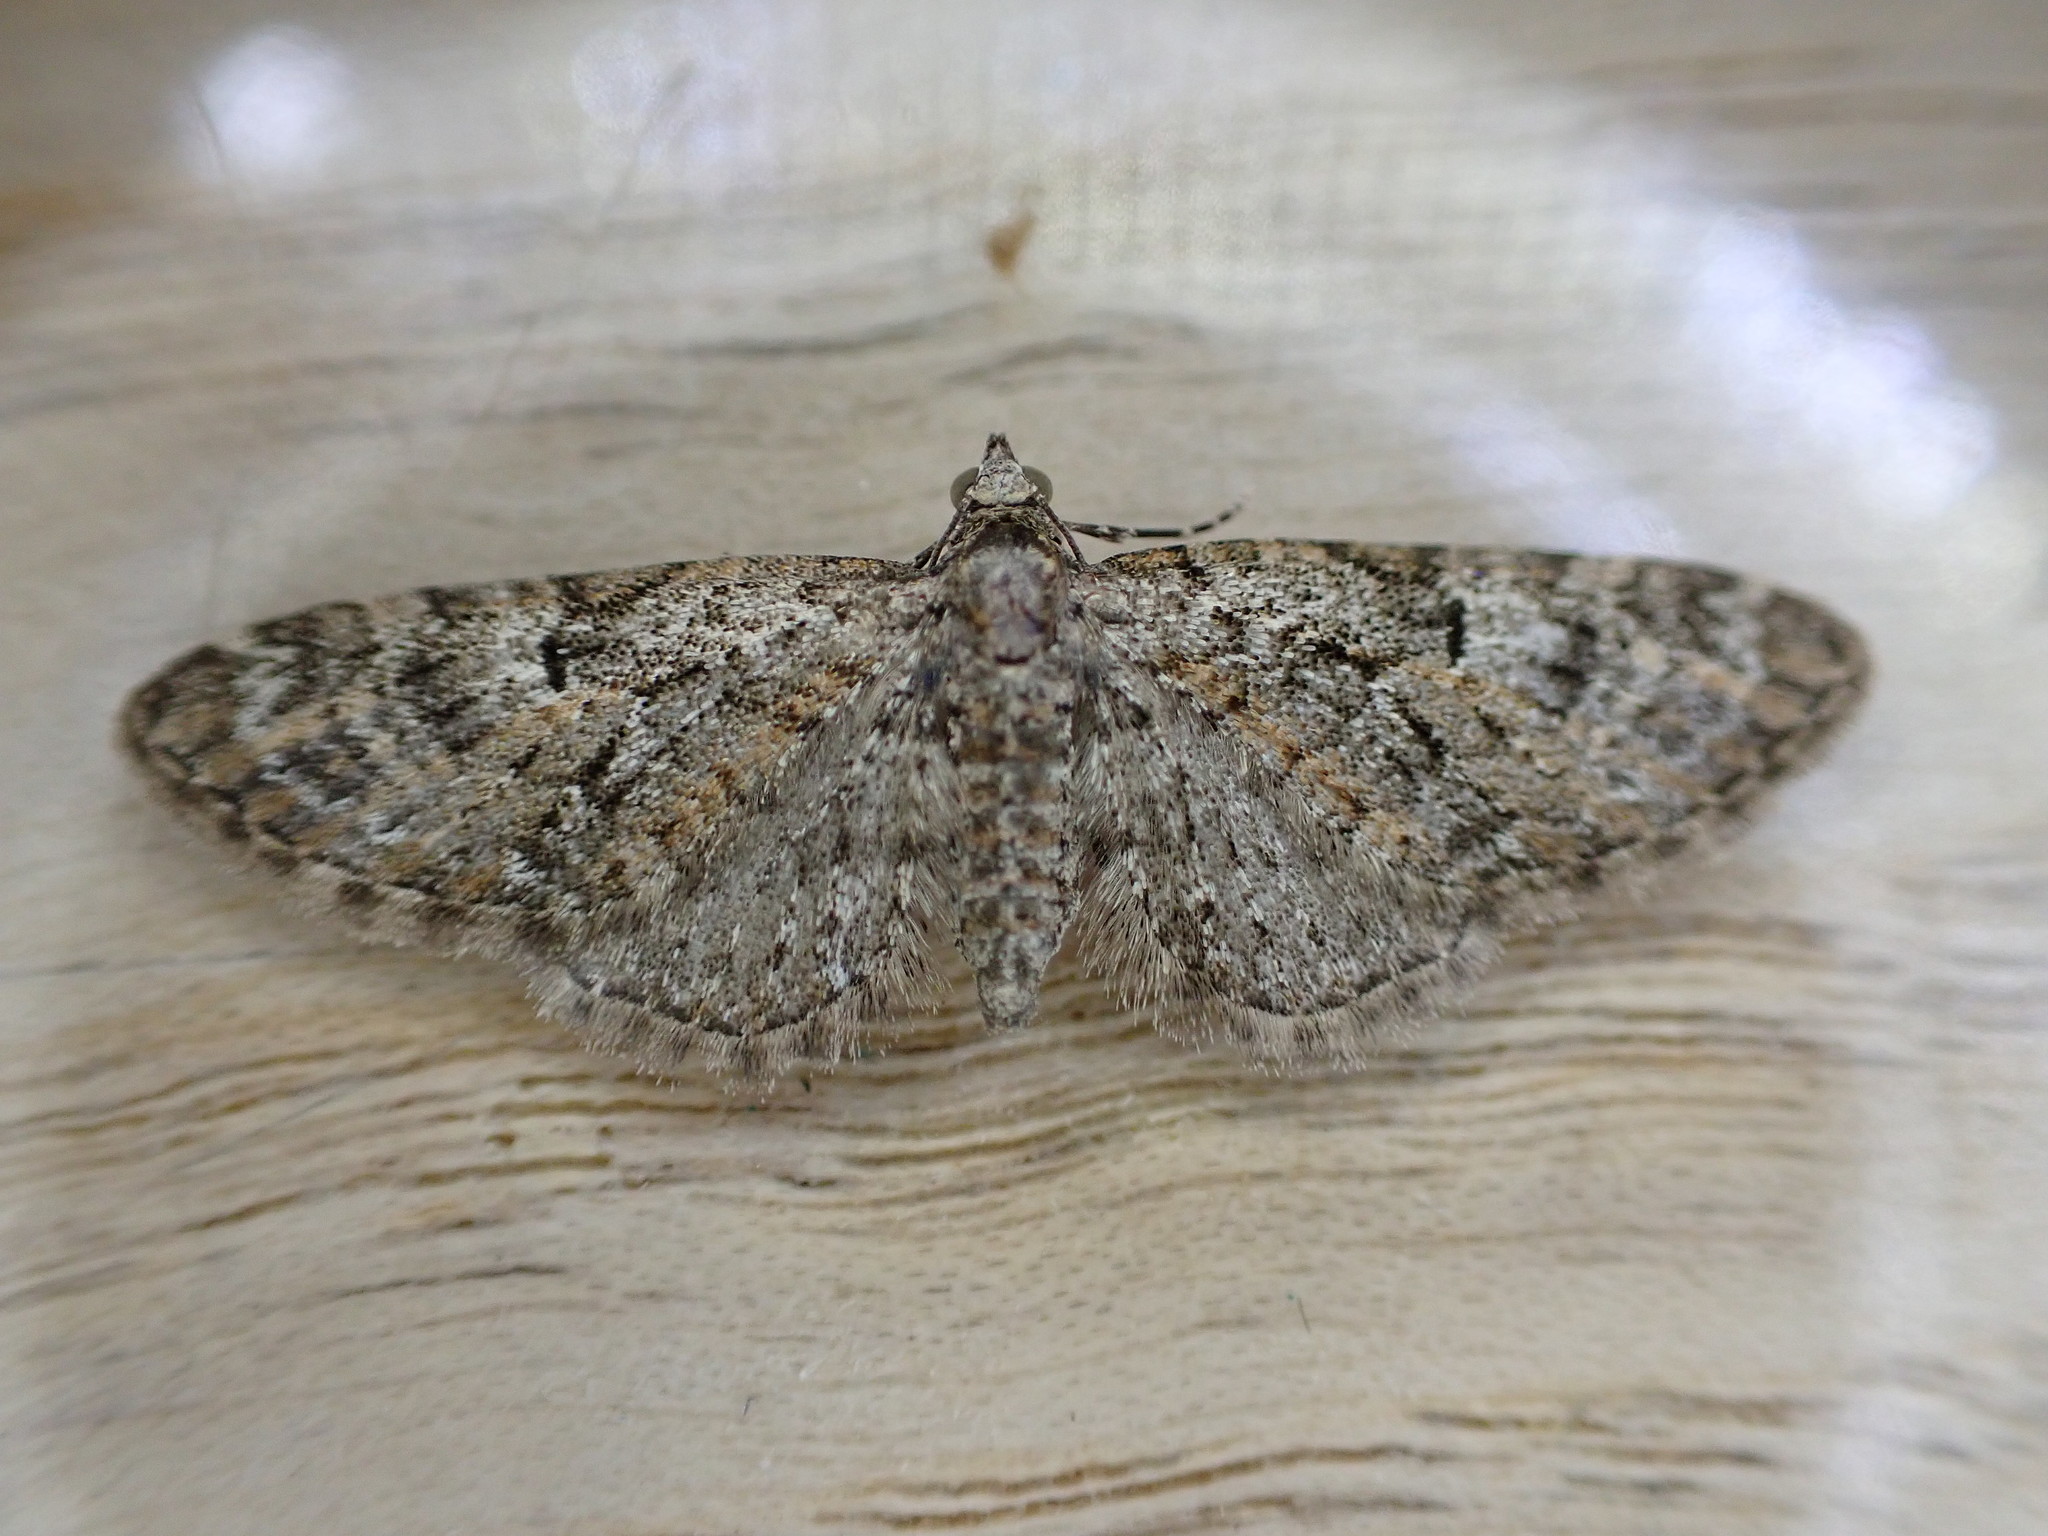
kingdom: Animalia
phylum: Arthropoda
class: Insecta
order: Lepidoptera
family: Geometridae
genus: Eupithecia
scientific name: Eupithecia abbreviata
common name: Brindled pug
